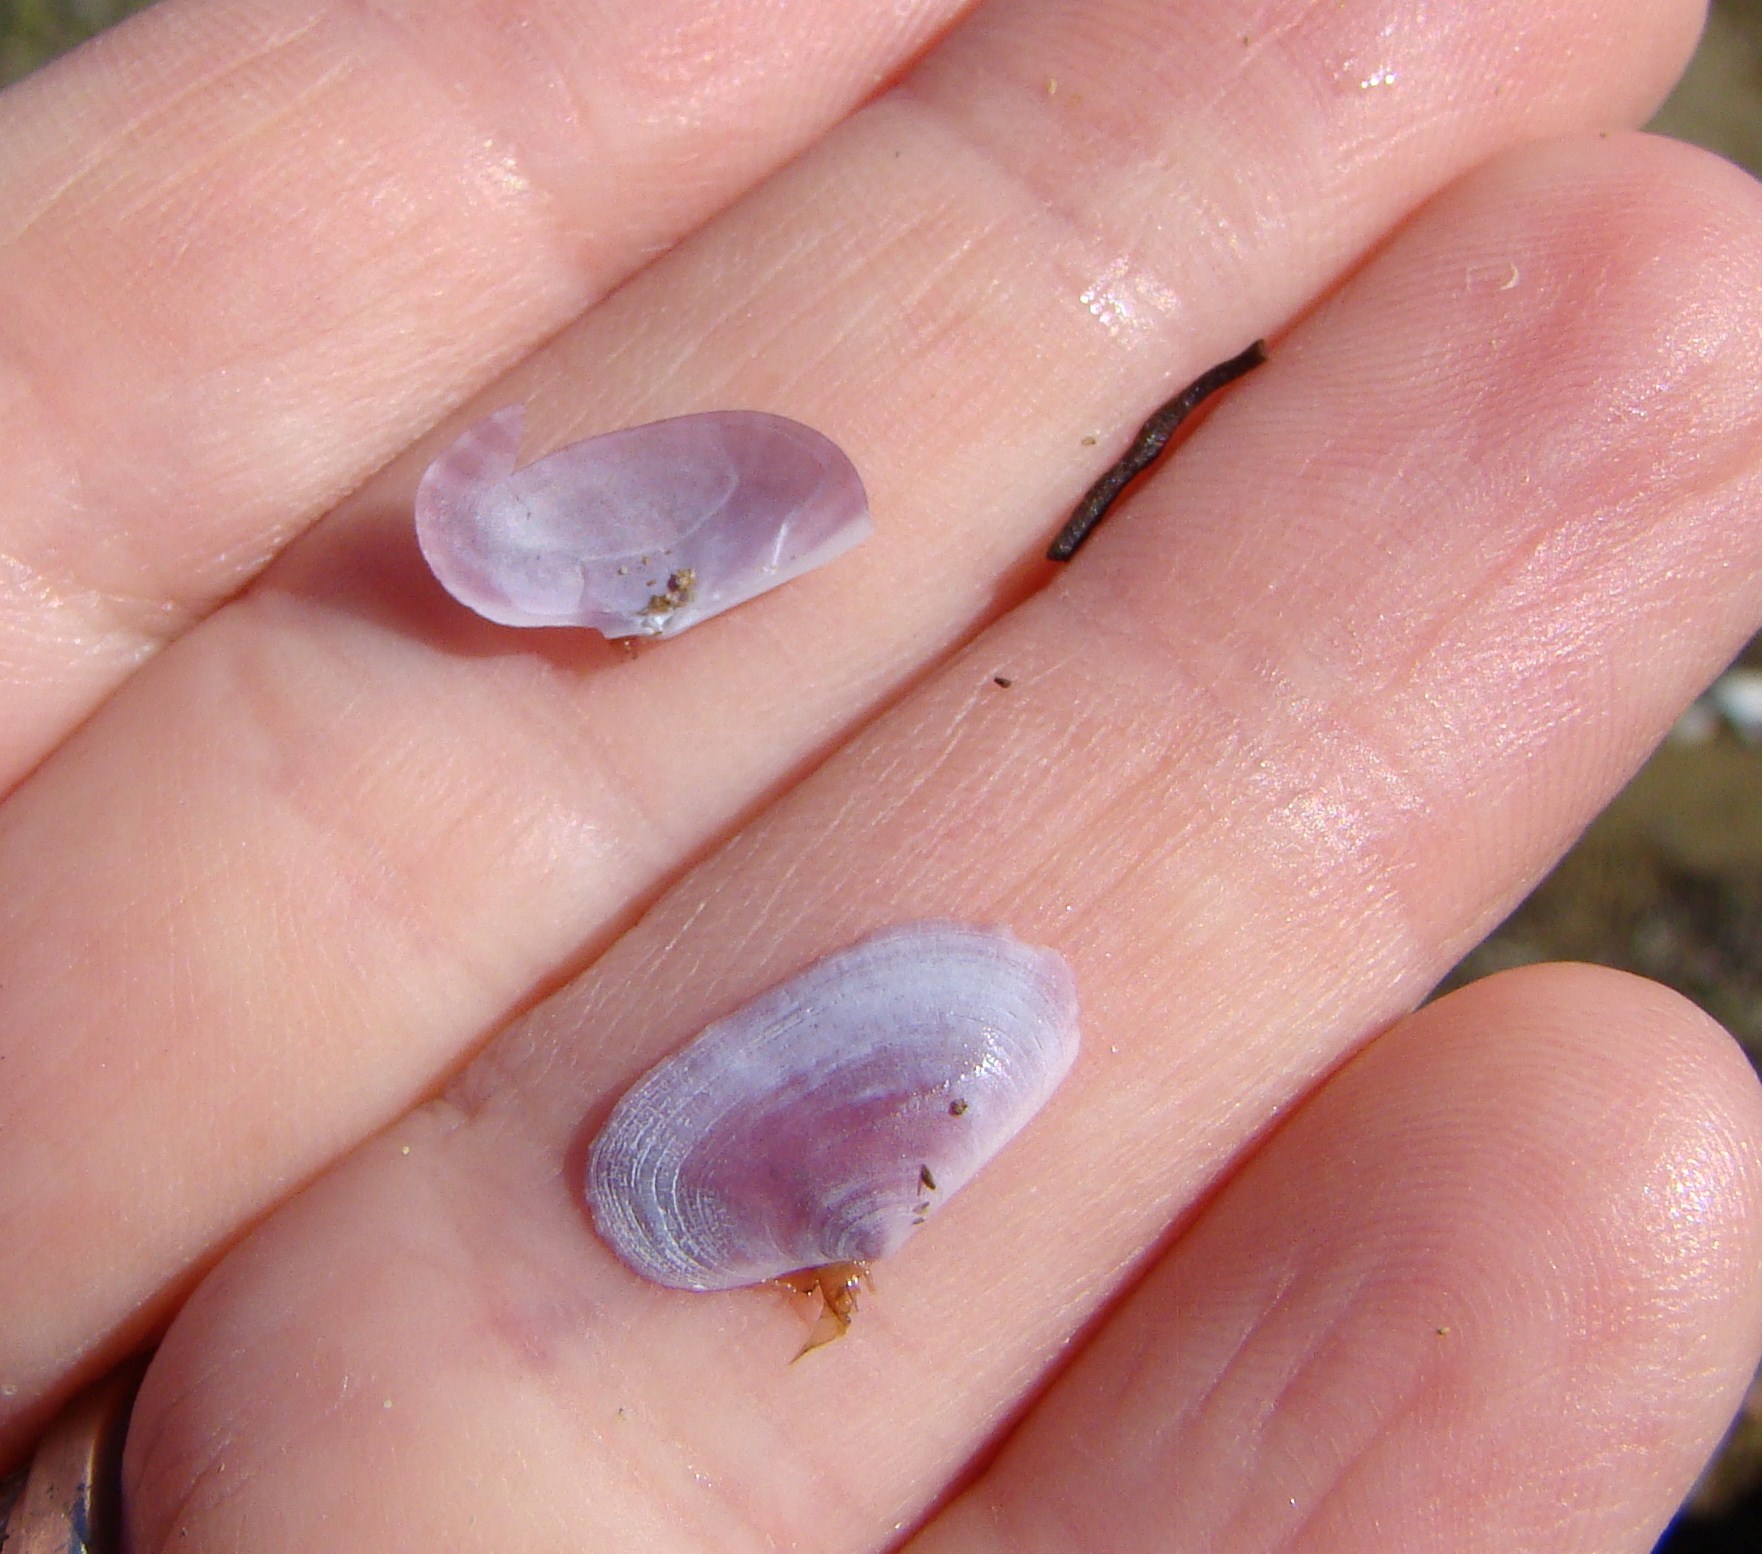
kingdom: Animalia
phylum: Mollusca
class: Bivalvia
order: Cardiida
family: Psammobiidae
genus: Gari
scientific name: Gari stangeri
